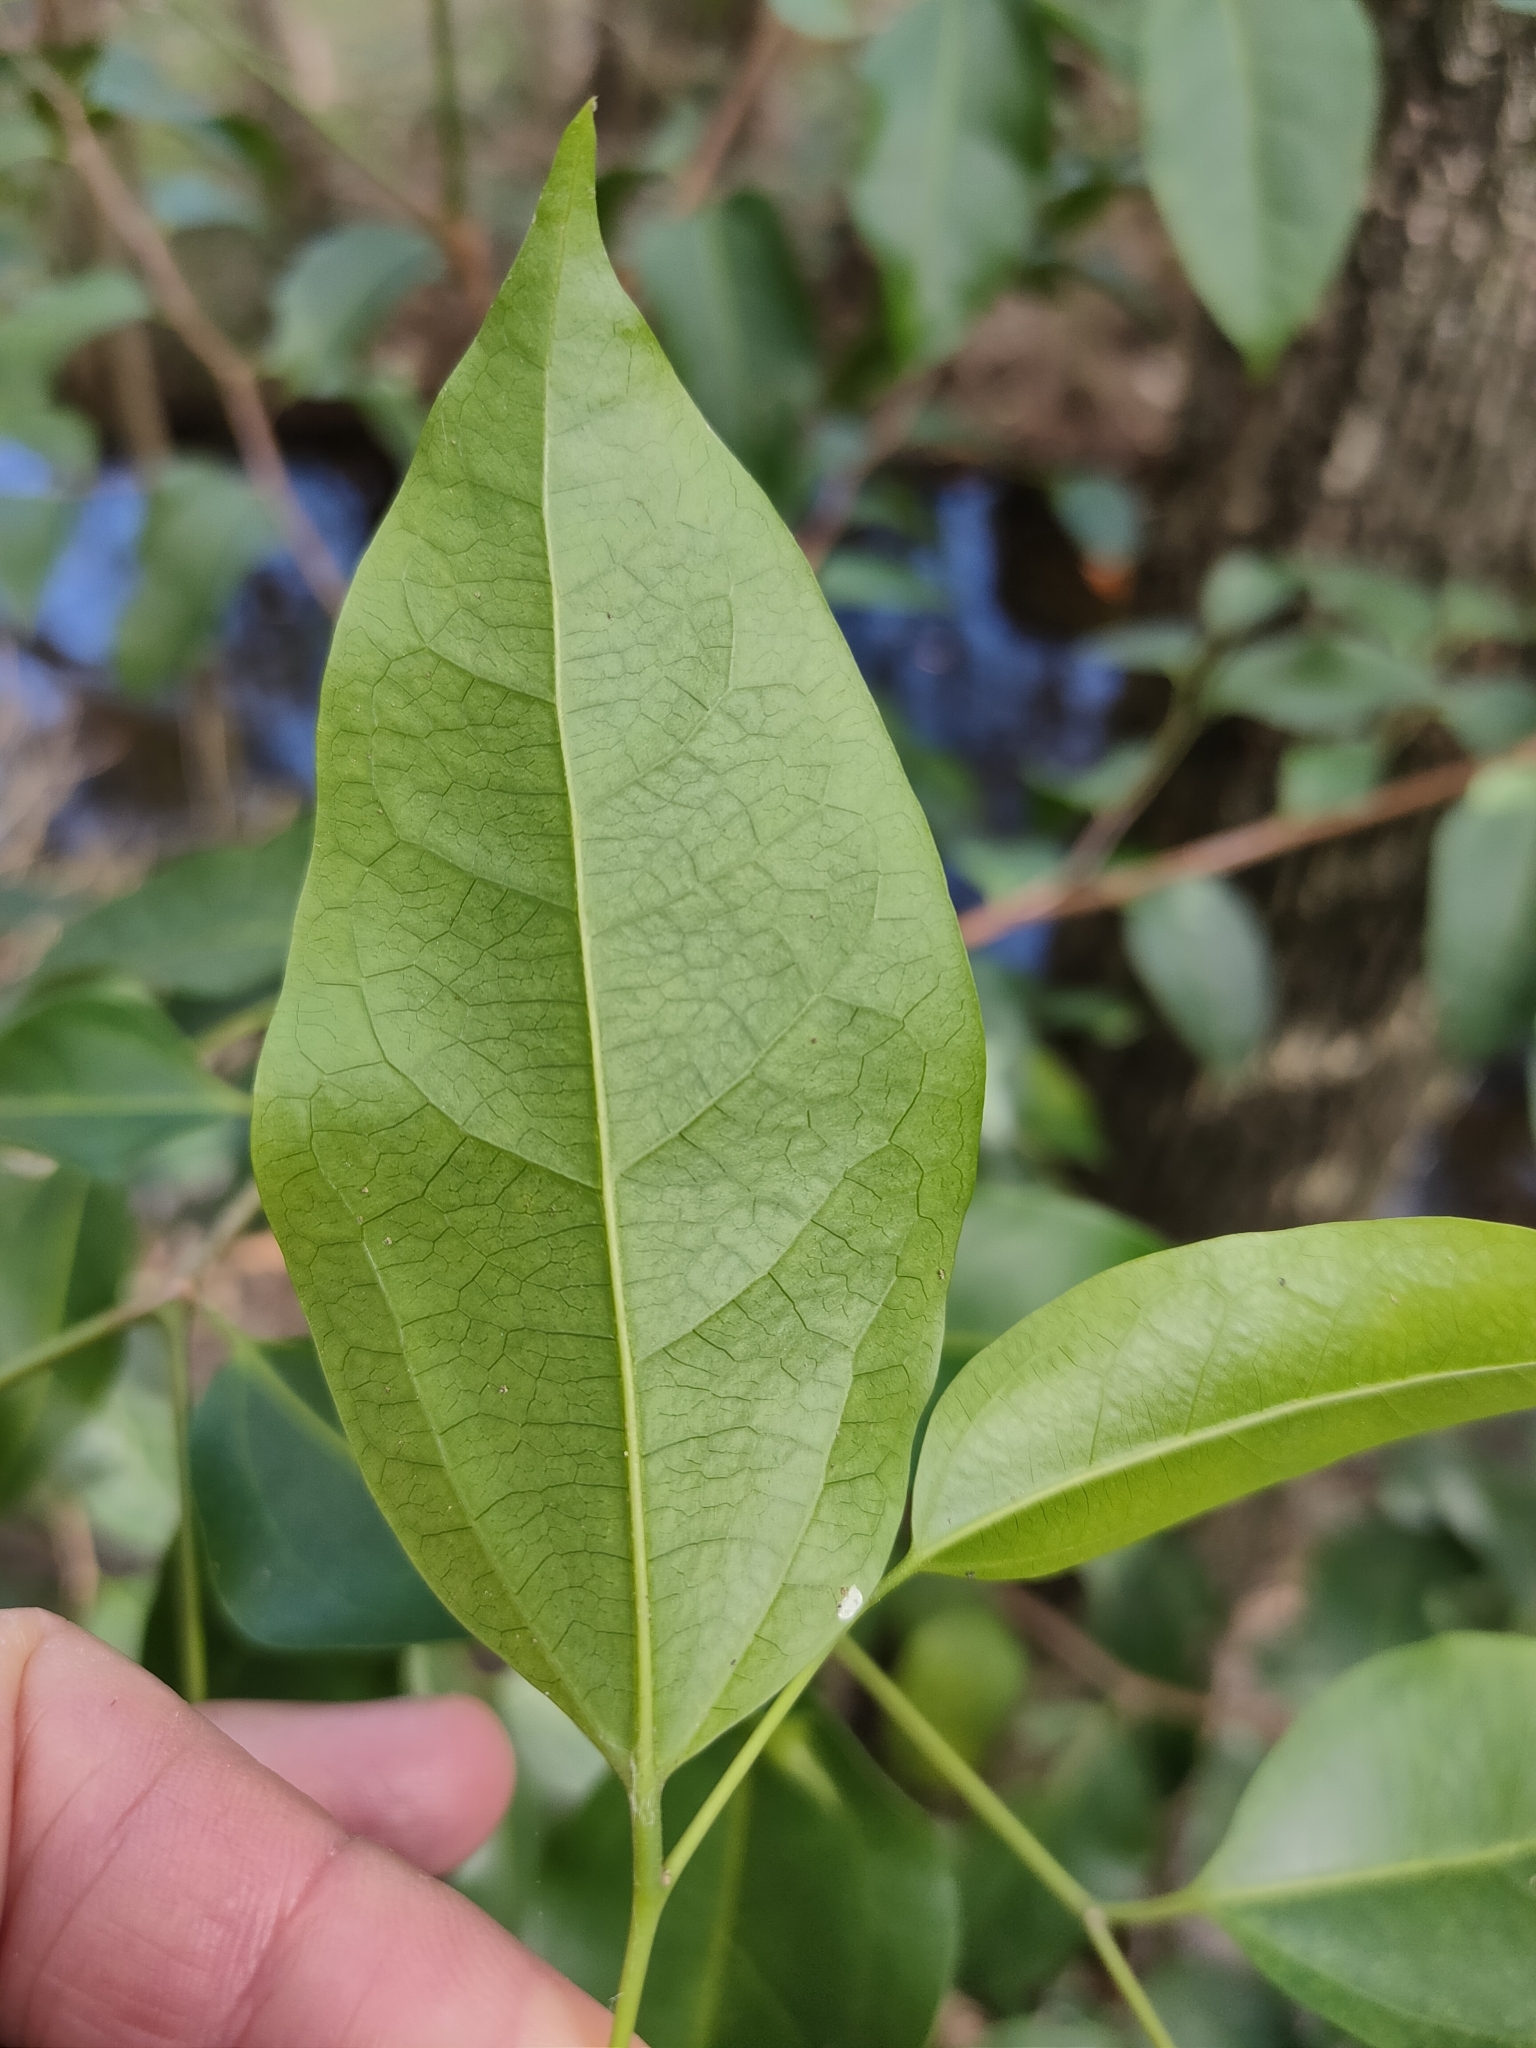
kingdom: Plantae
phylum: Tracheophyta
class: Magnoliopsida
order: Rosales
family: Cannabaceae
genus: Celtis
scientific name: Celtis paniculata
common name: Silky celtis
